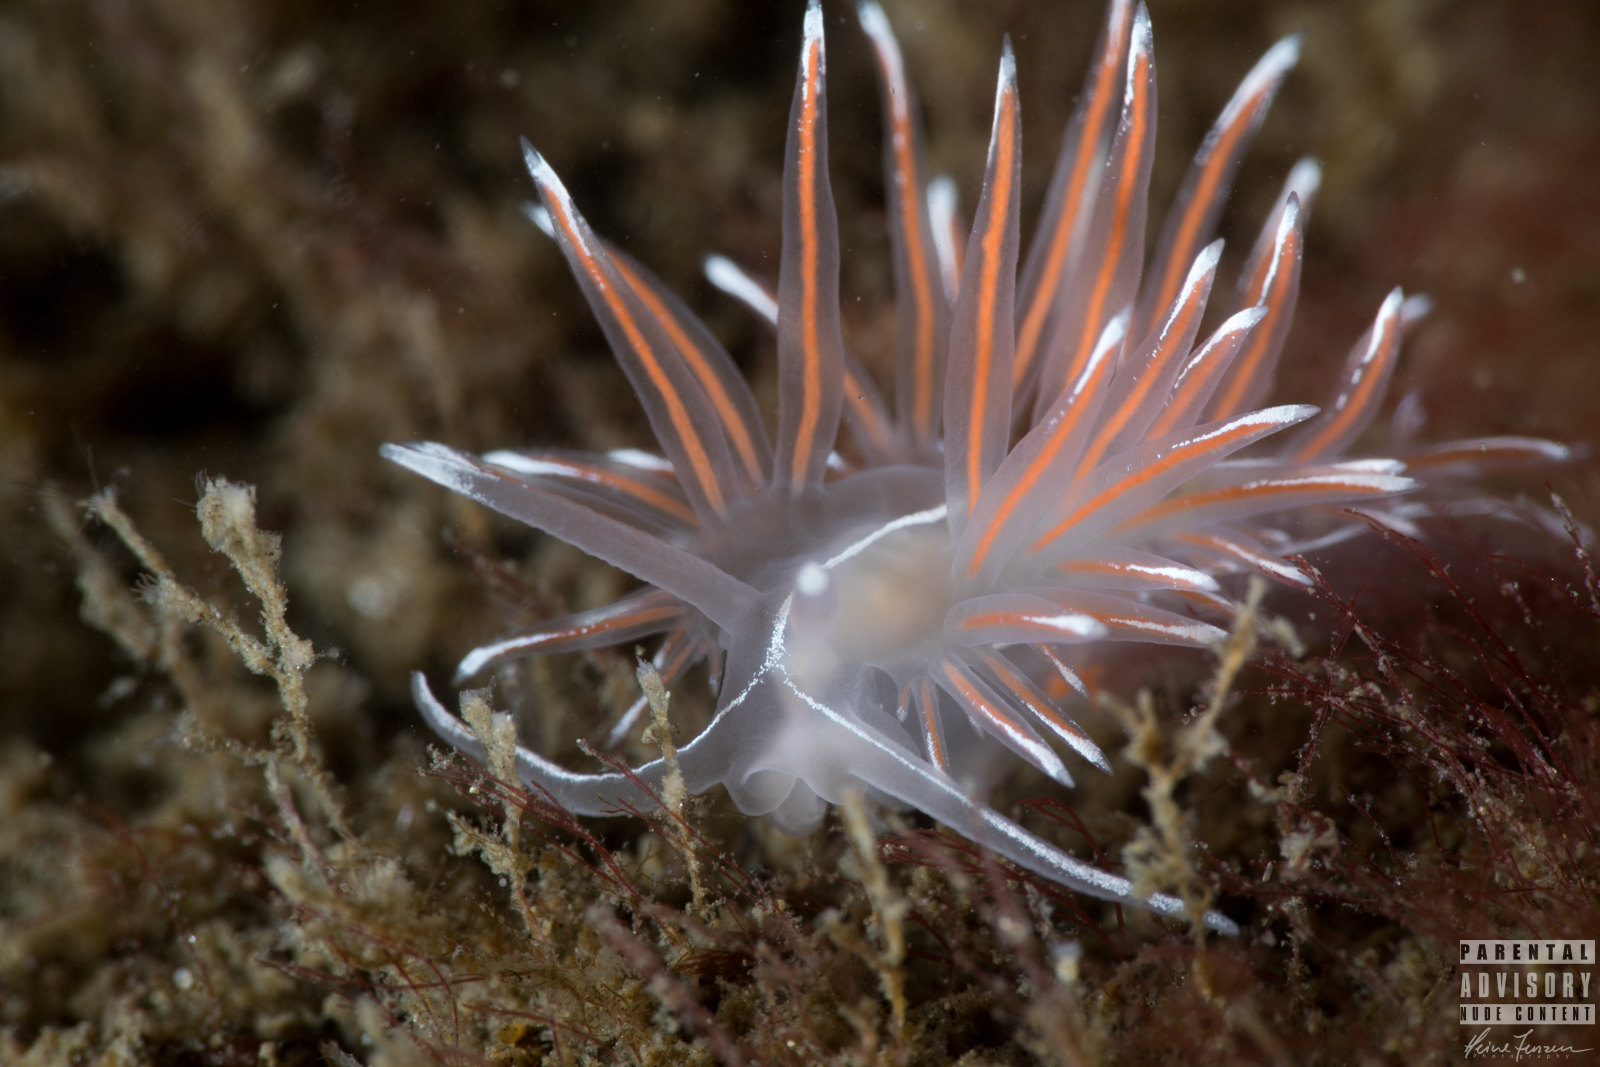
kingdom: Animalia
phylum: Mollusca
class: Gastropoda
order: Nudibranchia
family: Coryphellidae
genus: Coryphella
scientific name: Coryphella lineata
